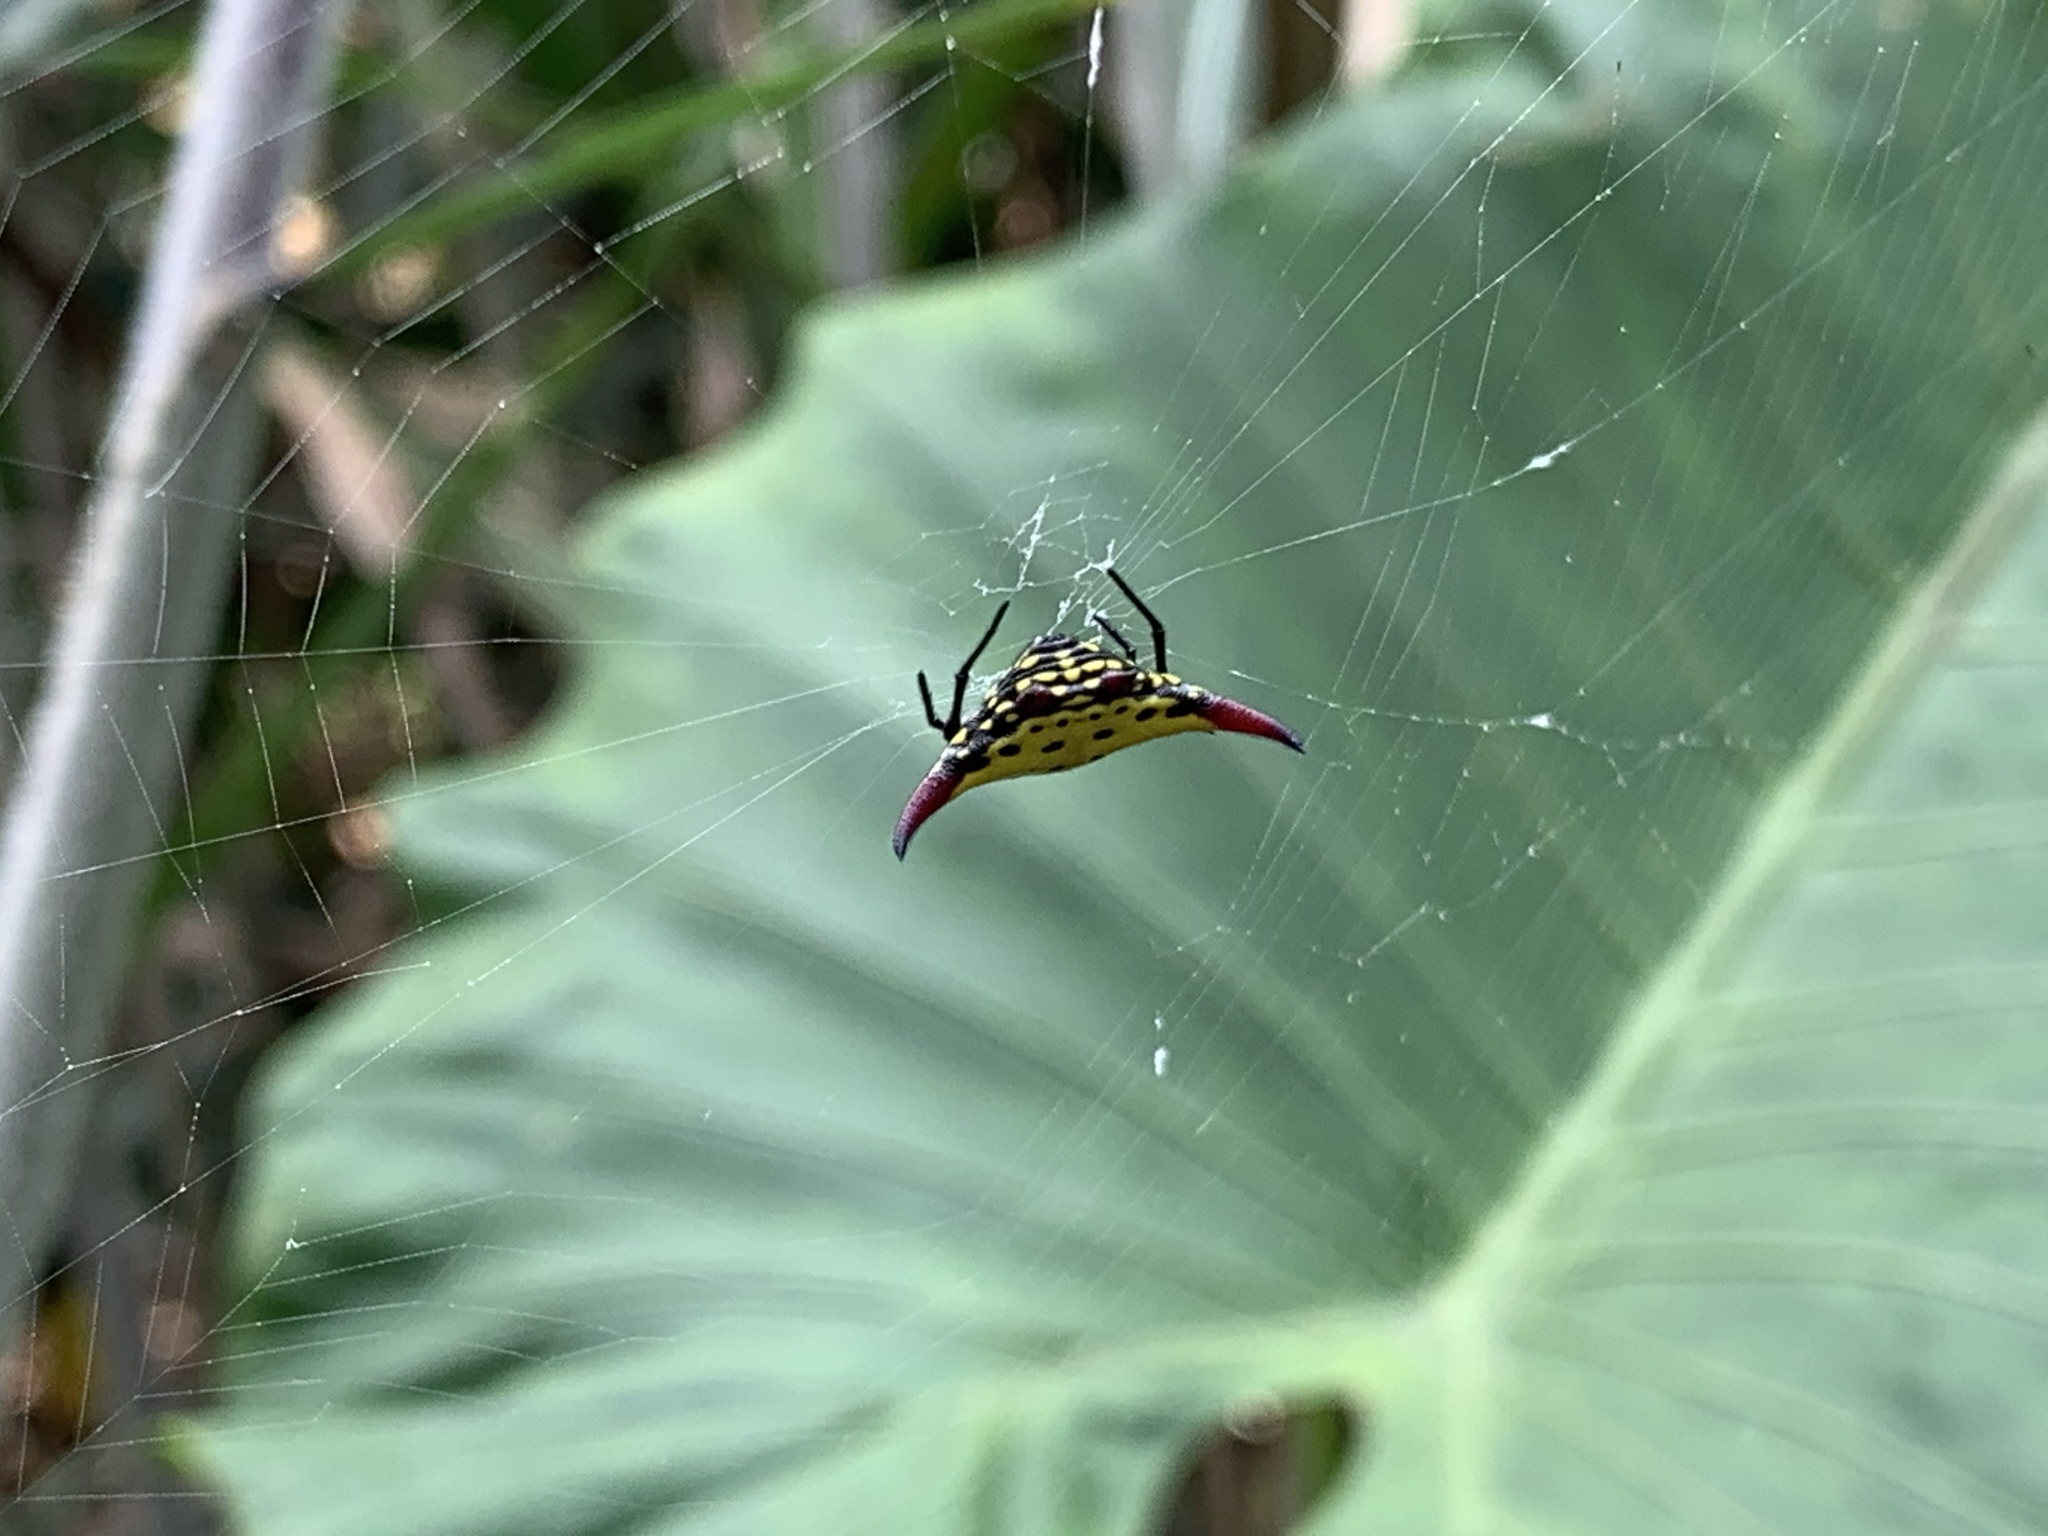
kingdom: Animalia
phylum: Arthropoda
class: Arachnida
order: Araneae
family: Araneidae
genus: Gasteracantha
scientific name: Gasteracantha sauteri
